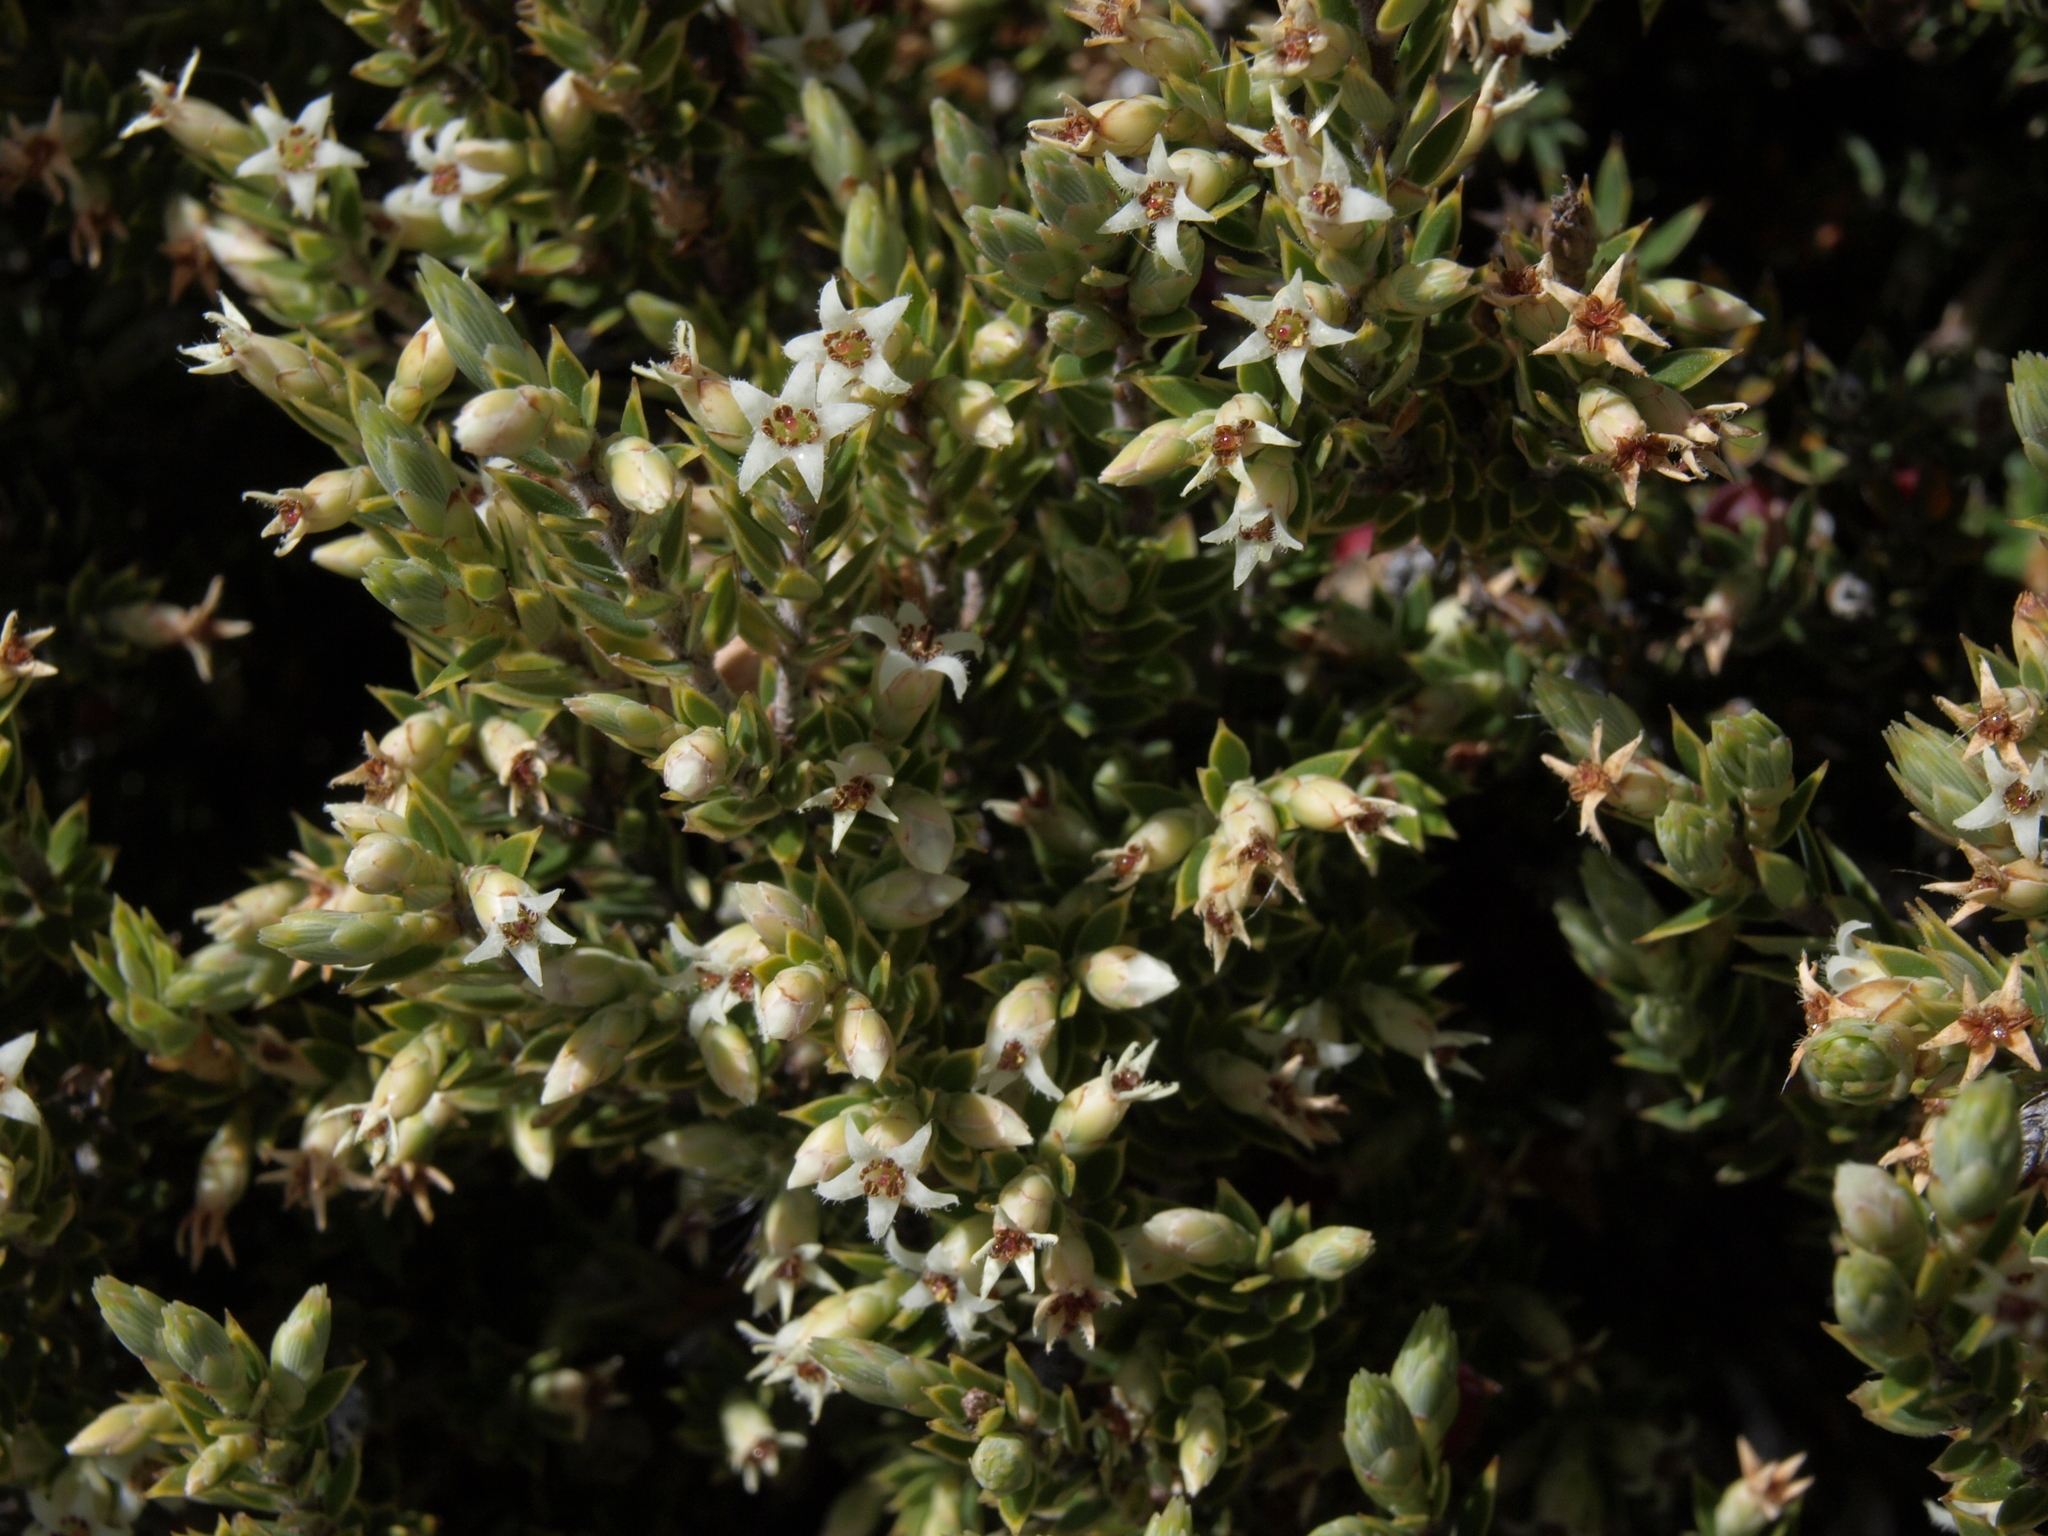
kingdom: Plantae
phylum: Tracheophyta
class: Magnoliopsida
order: Ericales
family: Ericaceae
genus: Leptecophylla
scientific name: Leptecophylla tameiameiae
